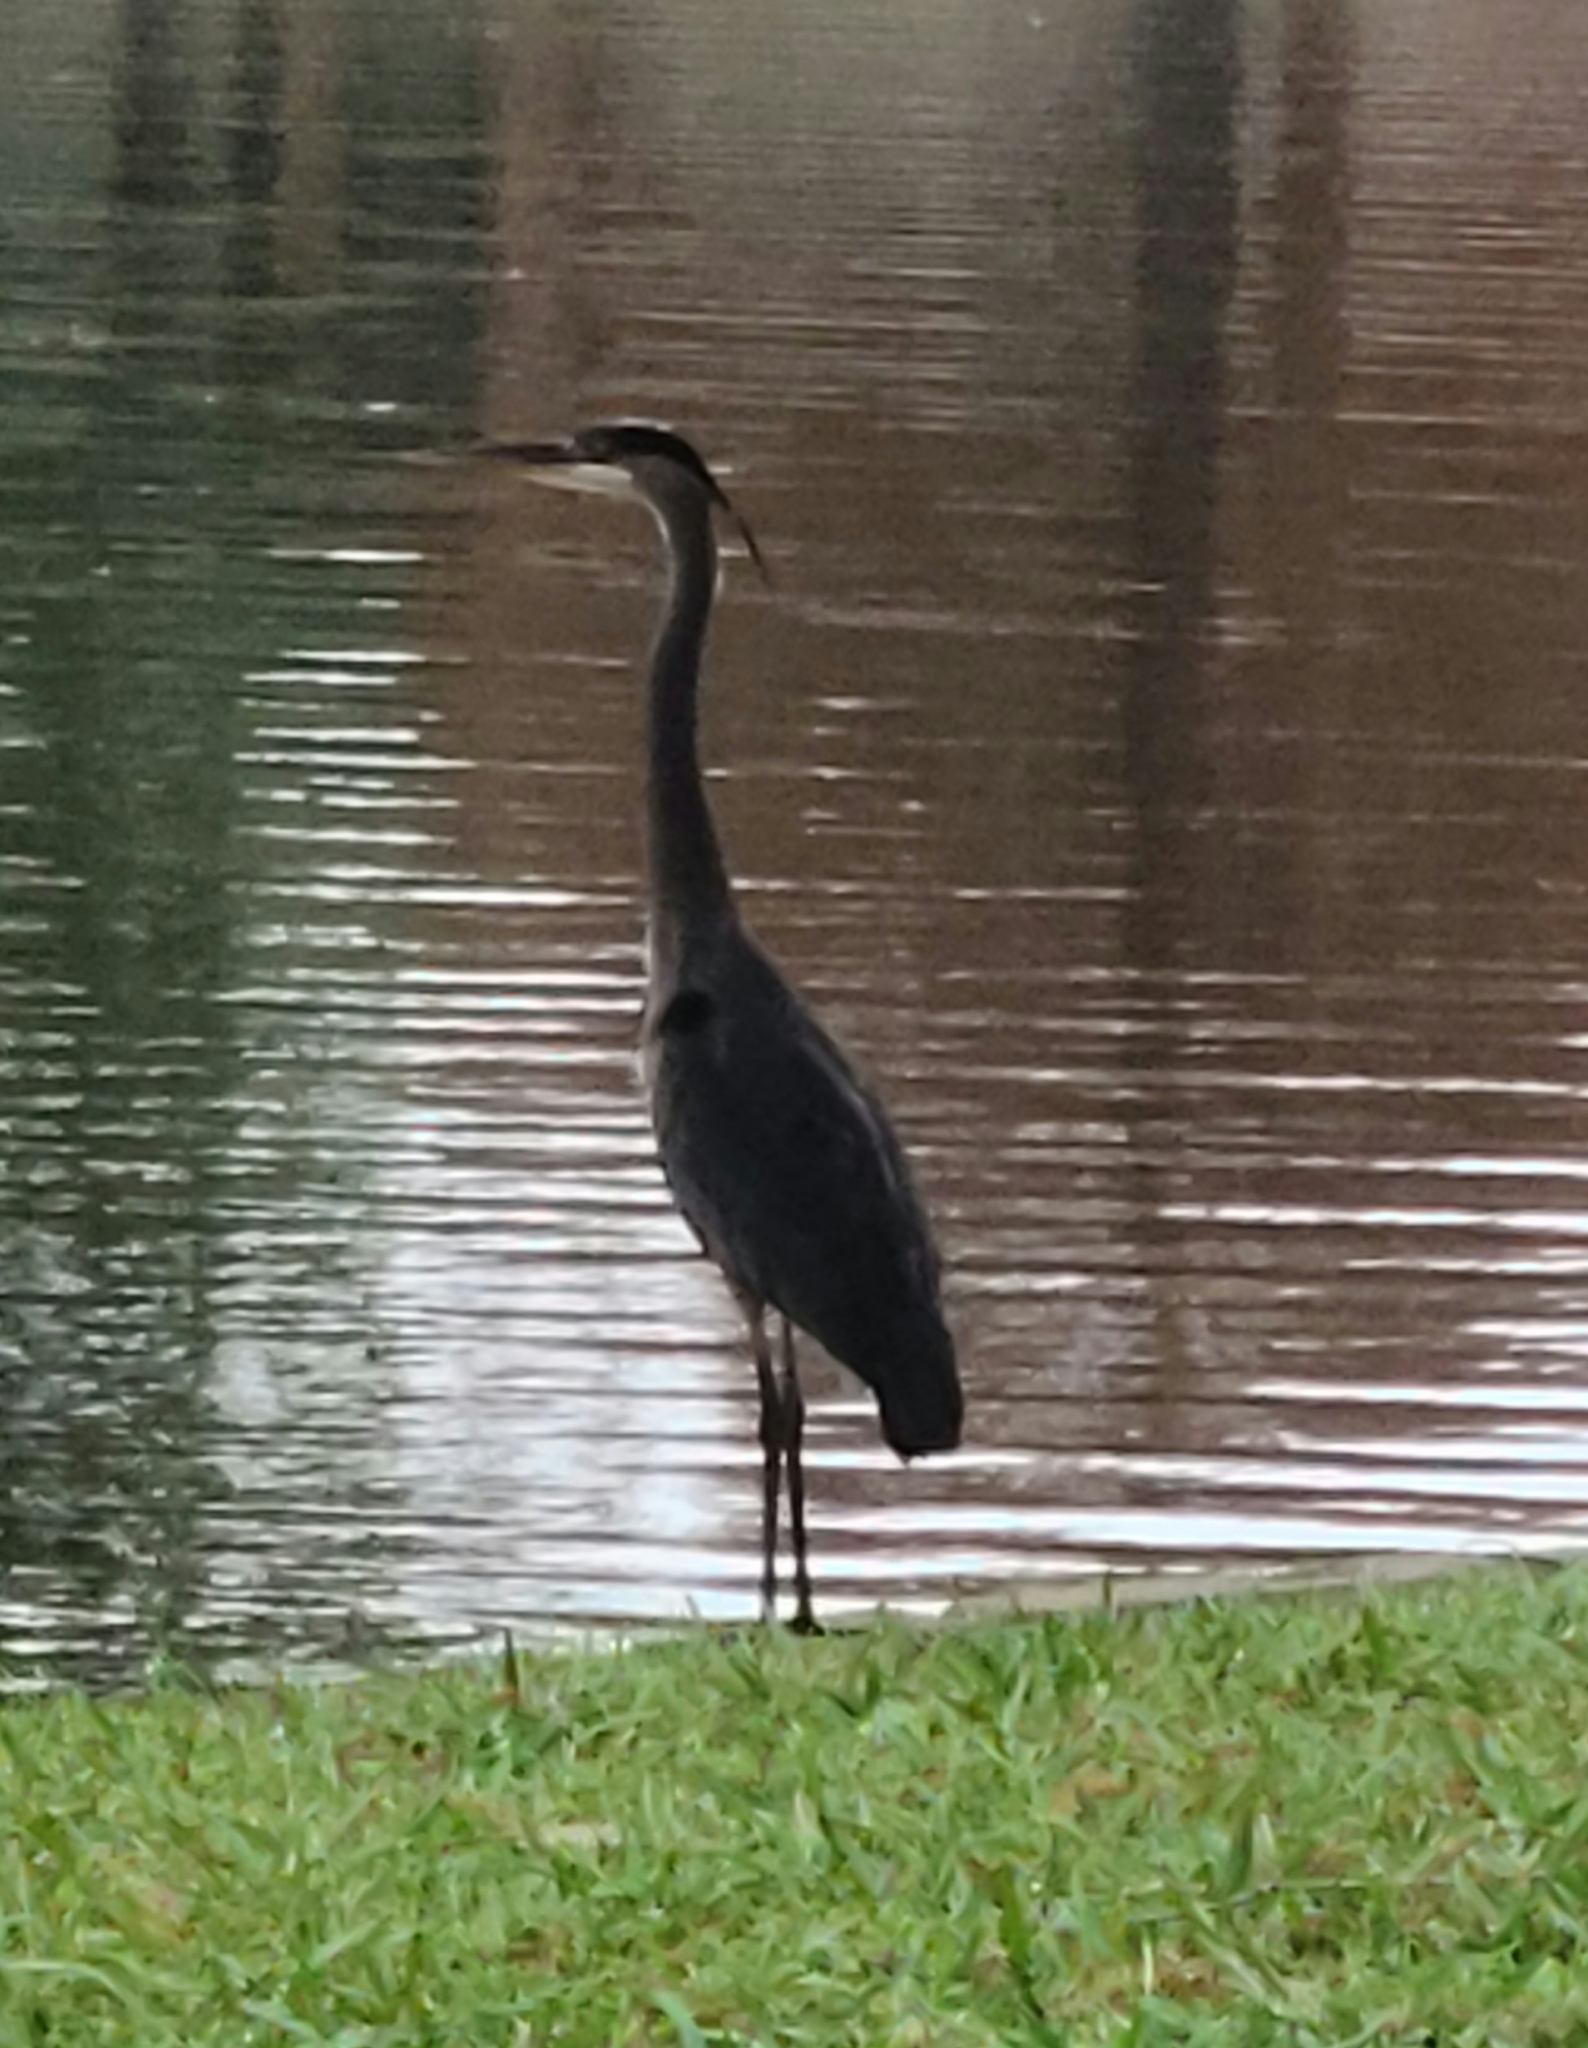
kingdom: Animalia
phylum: Chordata
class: Aves
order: Pelecaniformes
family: Ardeidae
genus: Ardea
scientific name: Ardea herodias
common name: Great blue heron
